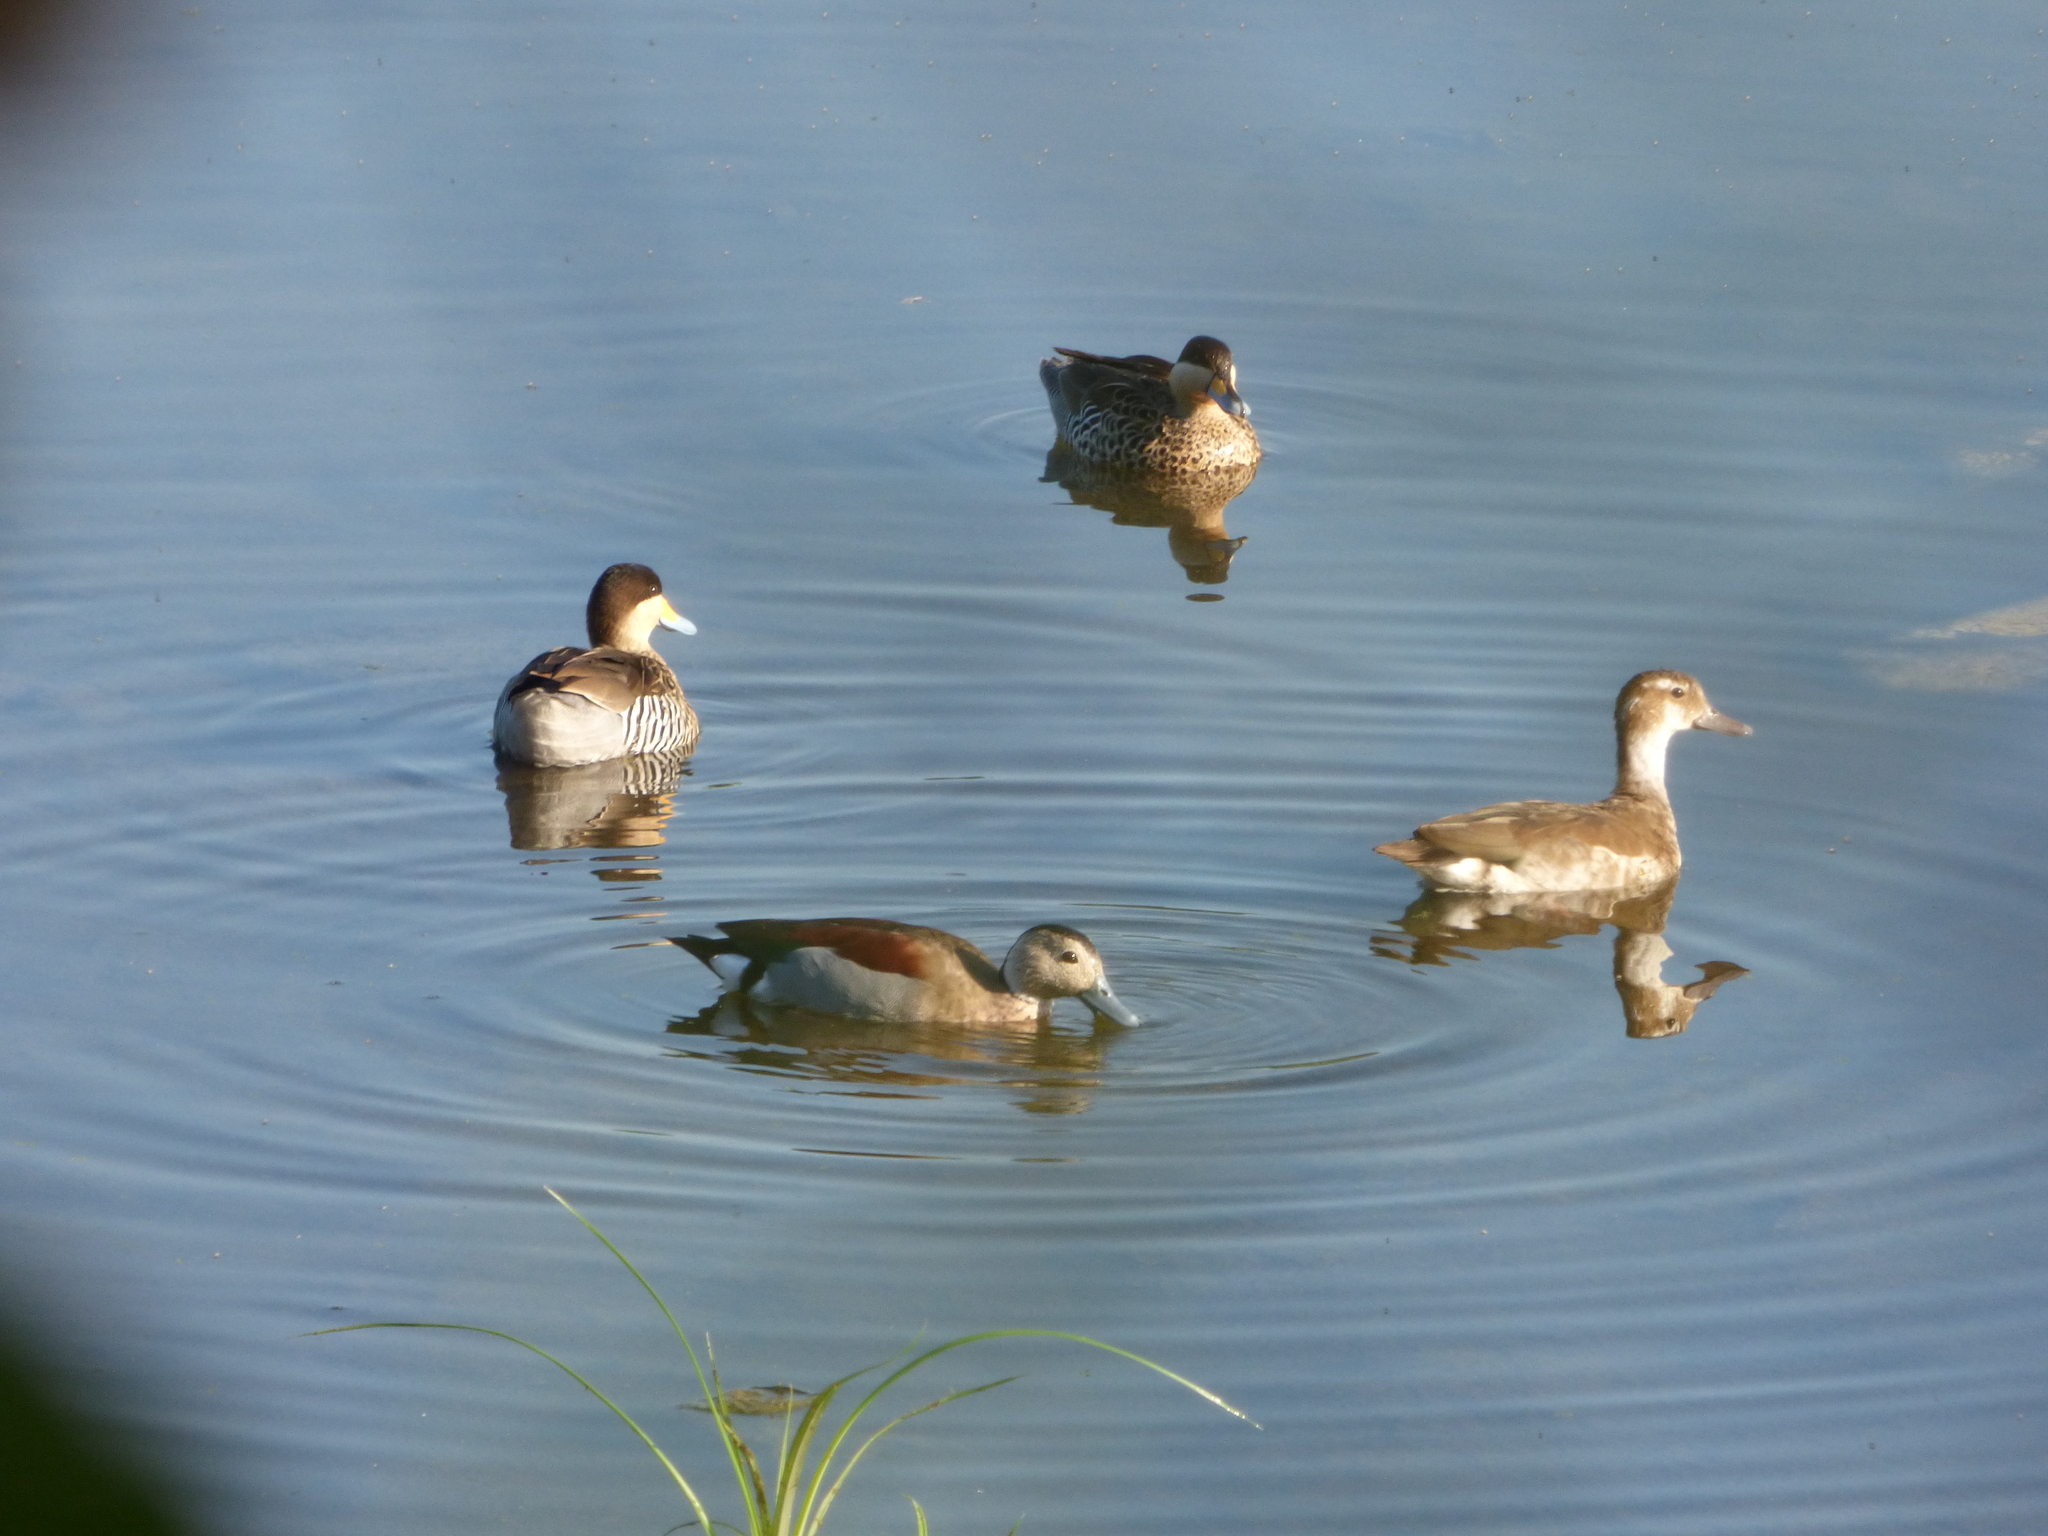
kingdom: Animalia
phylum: Chordata
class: Aves
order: Anseriformes
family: Anatidae
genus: Callonetta
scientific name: Callonetta leucophrys
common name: Ringed teal
